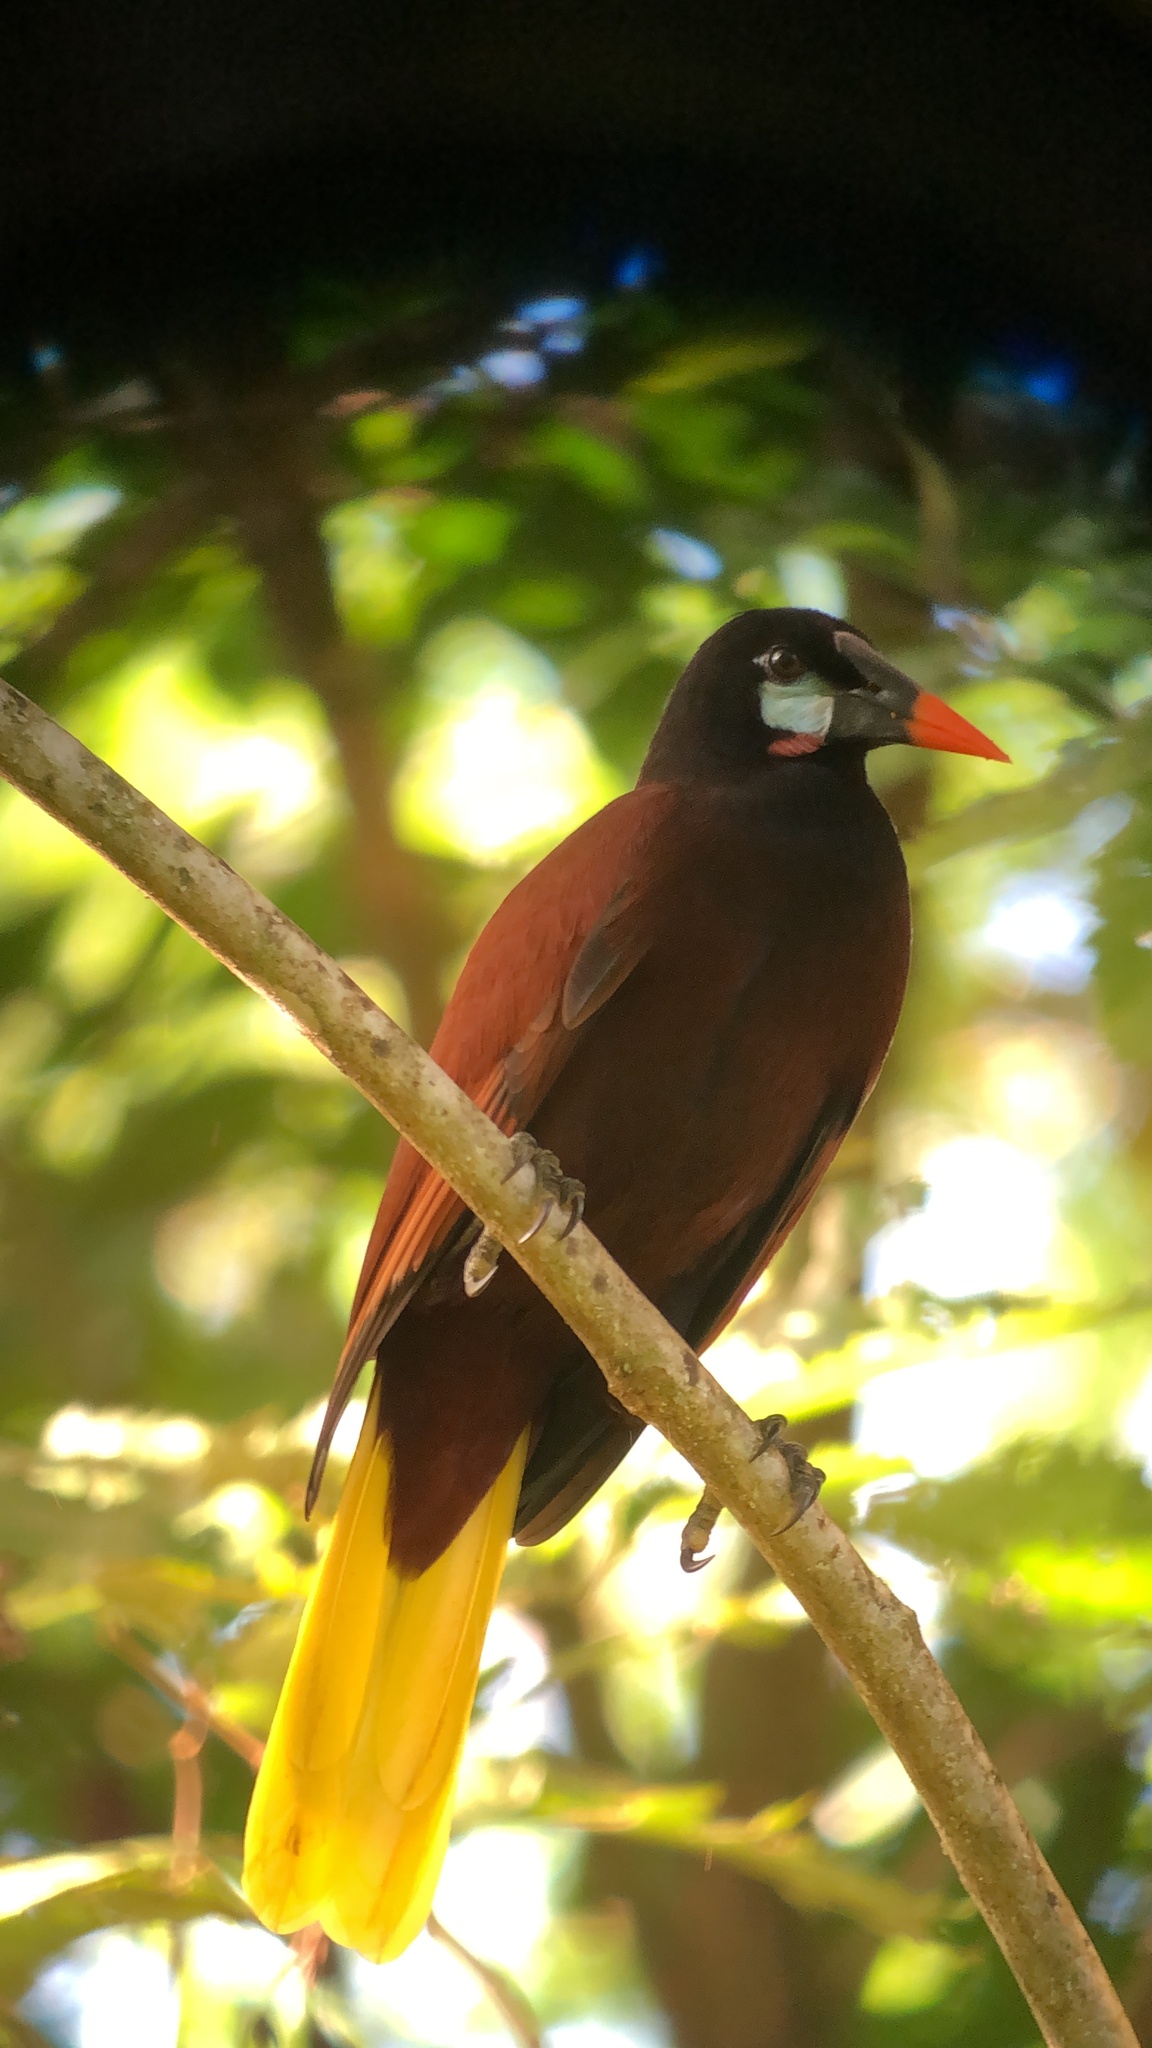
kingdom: Animalia
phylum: Chordata
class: Aves
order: Passeriformes
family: Icteridae
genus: Psarocolius
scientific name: Psarocolius montezuma
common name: Montezuma oropendola
